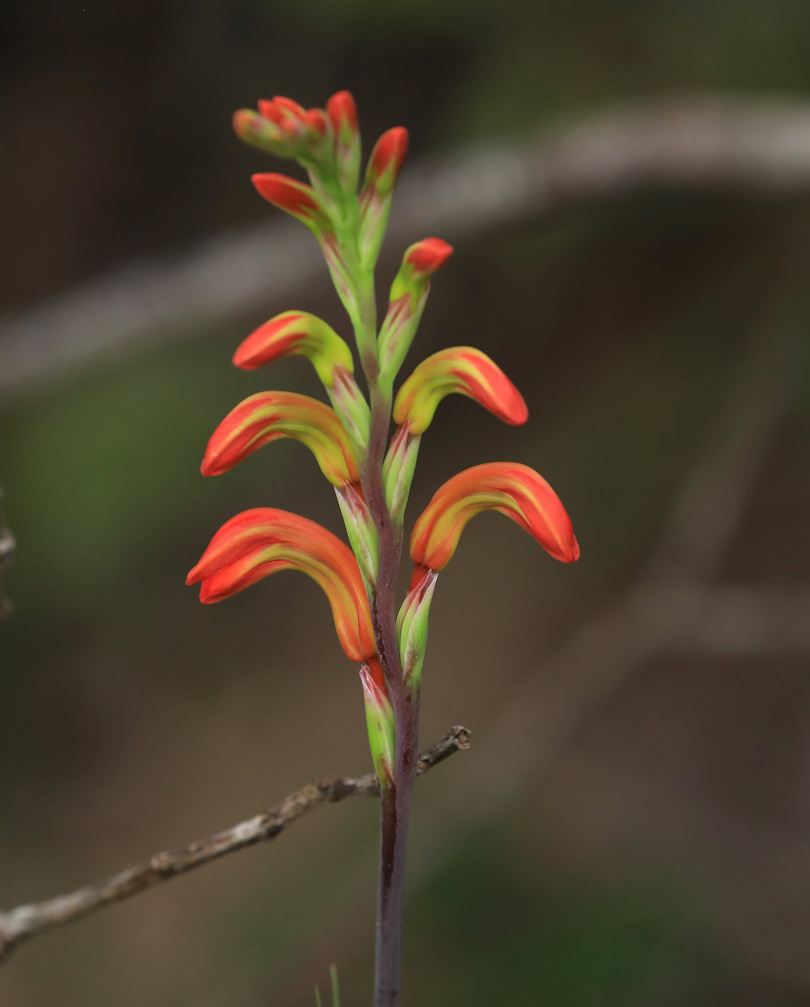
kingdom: Plantae
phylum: Tracheophyta
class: Liliopsida
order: Asparagales
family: Iridaceae
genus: Chasmanthe
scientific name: Chasmanthe aethiopica
